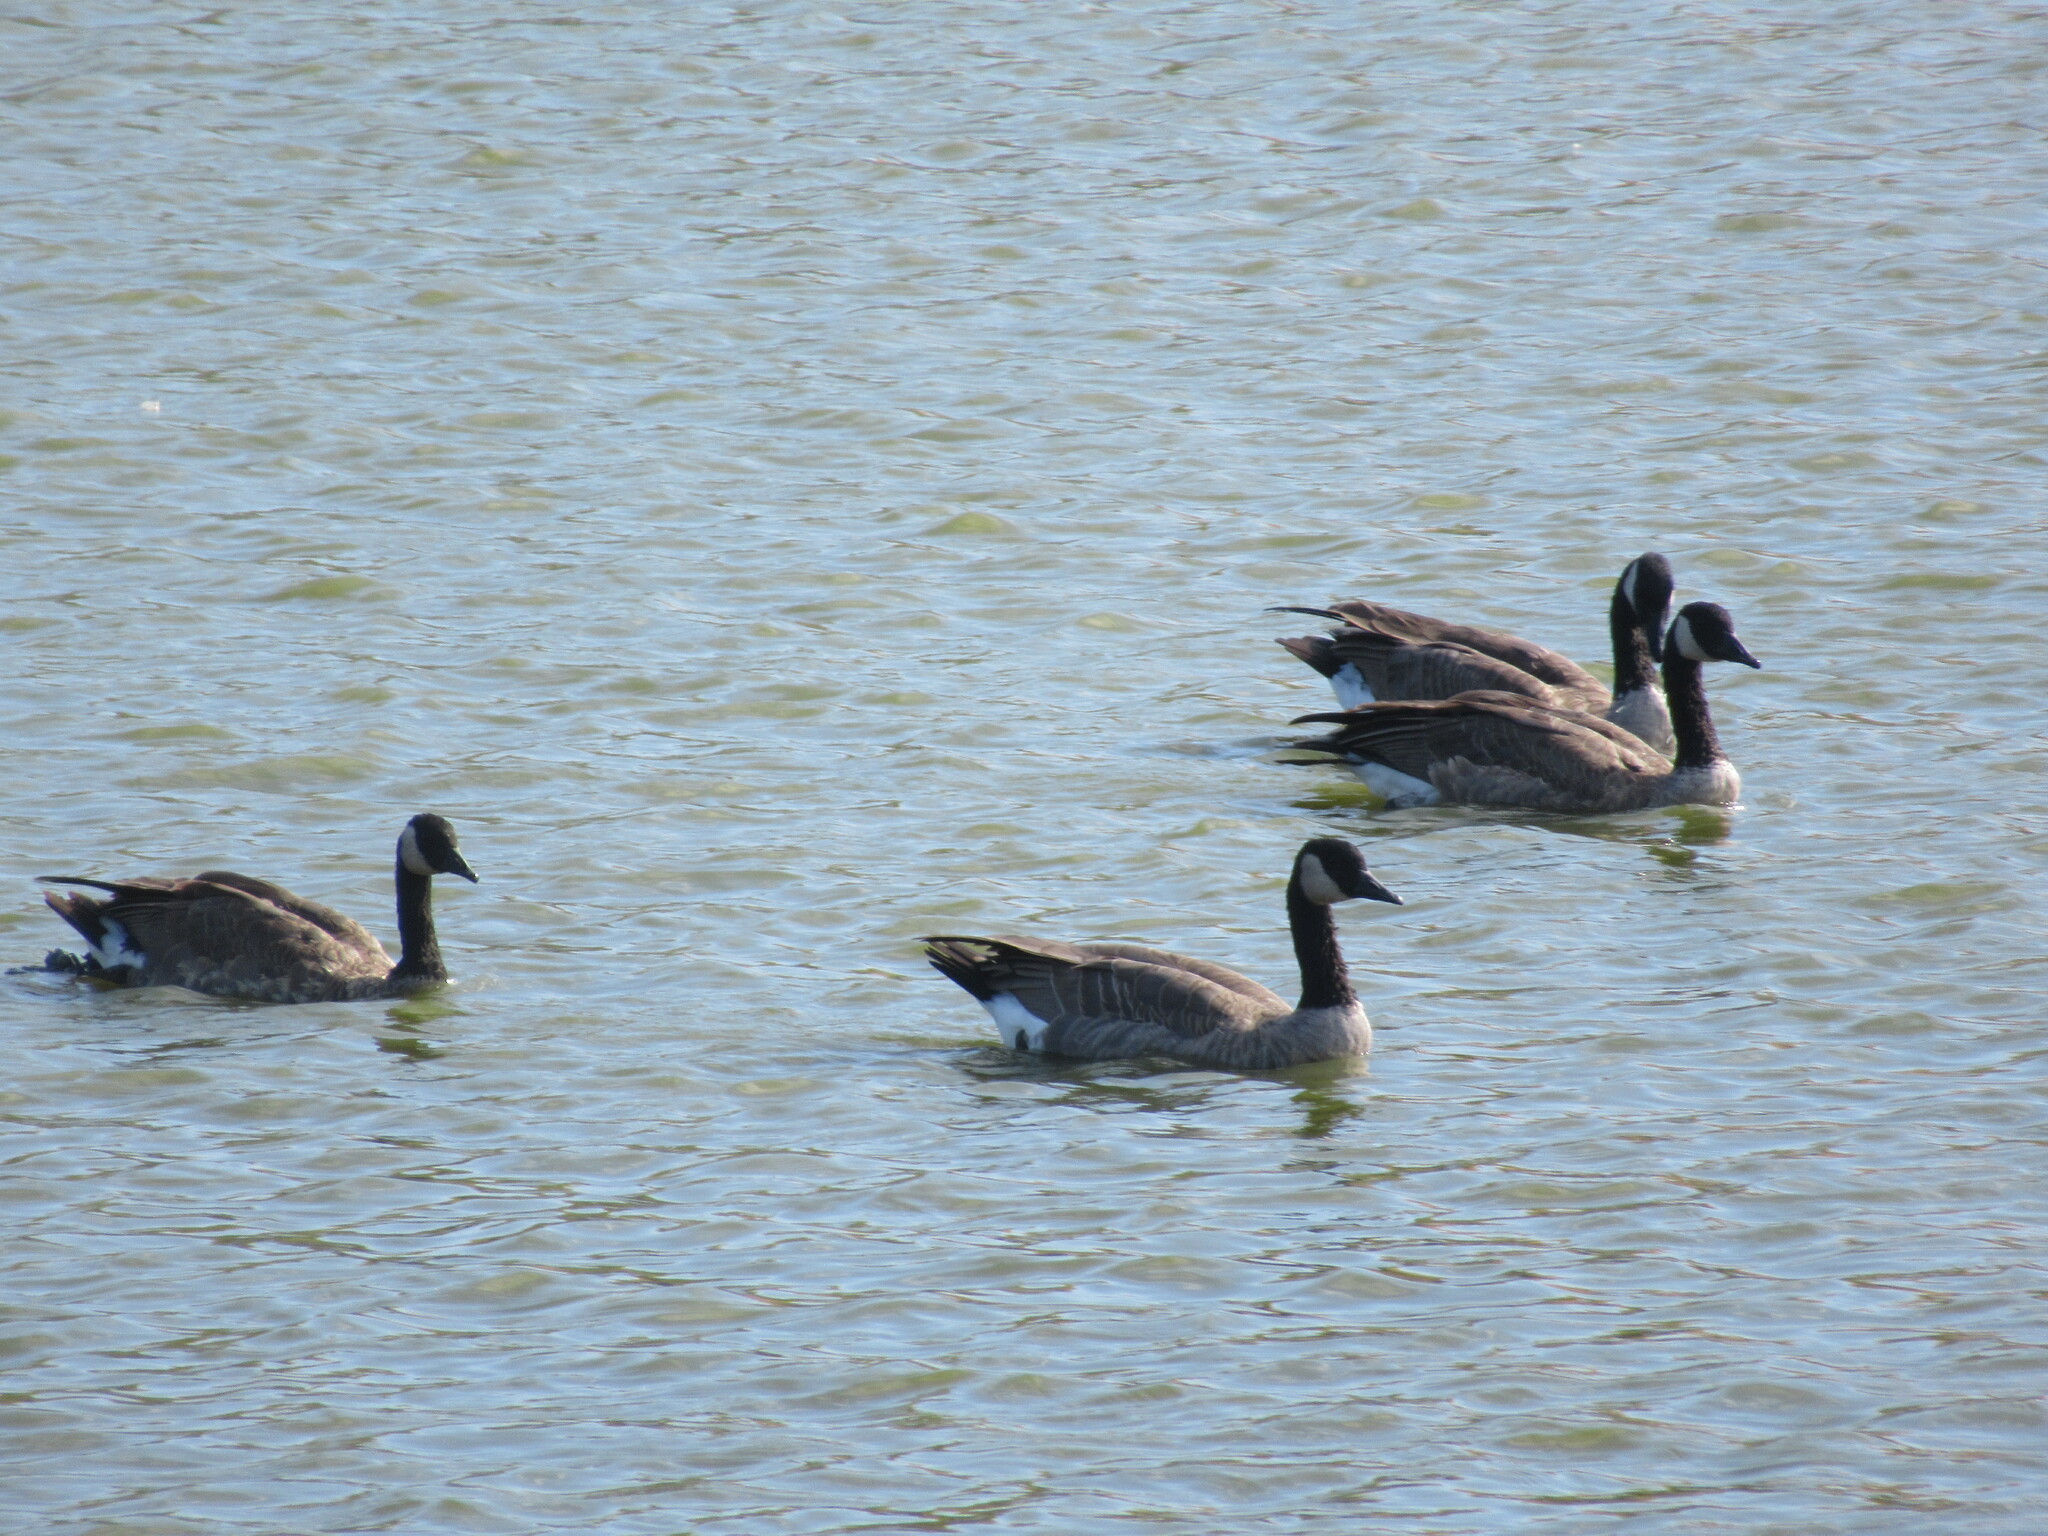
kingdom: Animalia
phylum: Chordata
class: Aves
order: Anseriformes
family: Anatidae
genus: Branta
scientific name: Branta canadensis
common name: Canada goose
